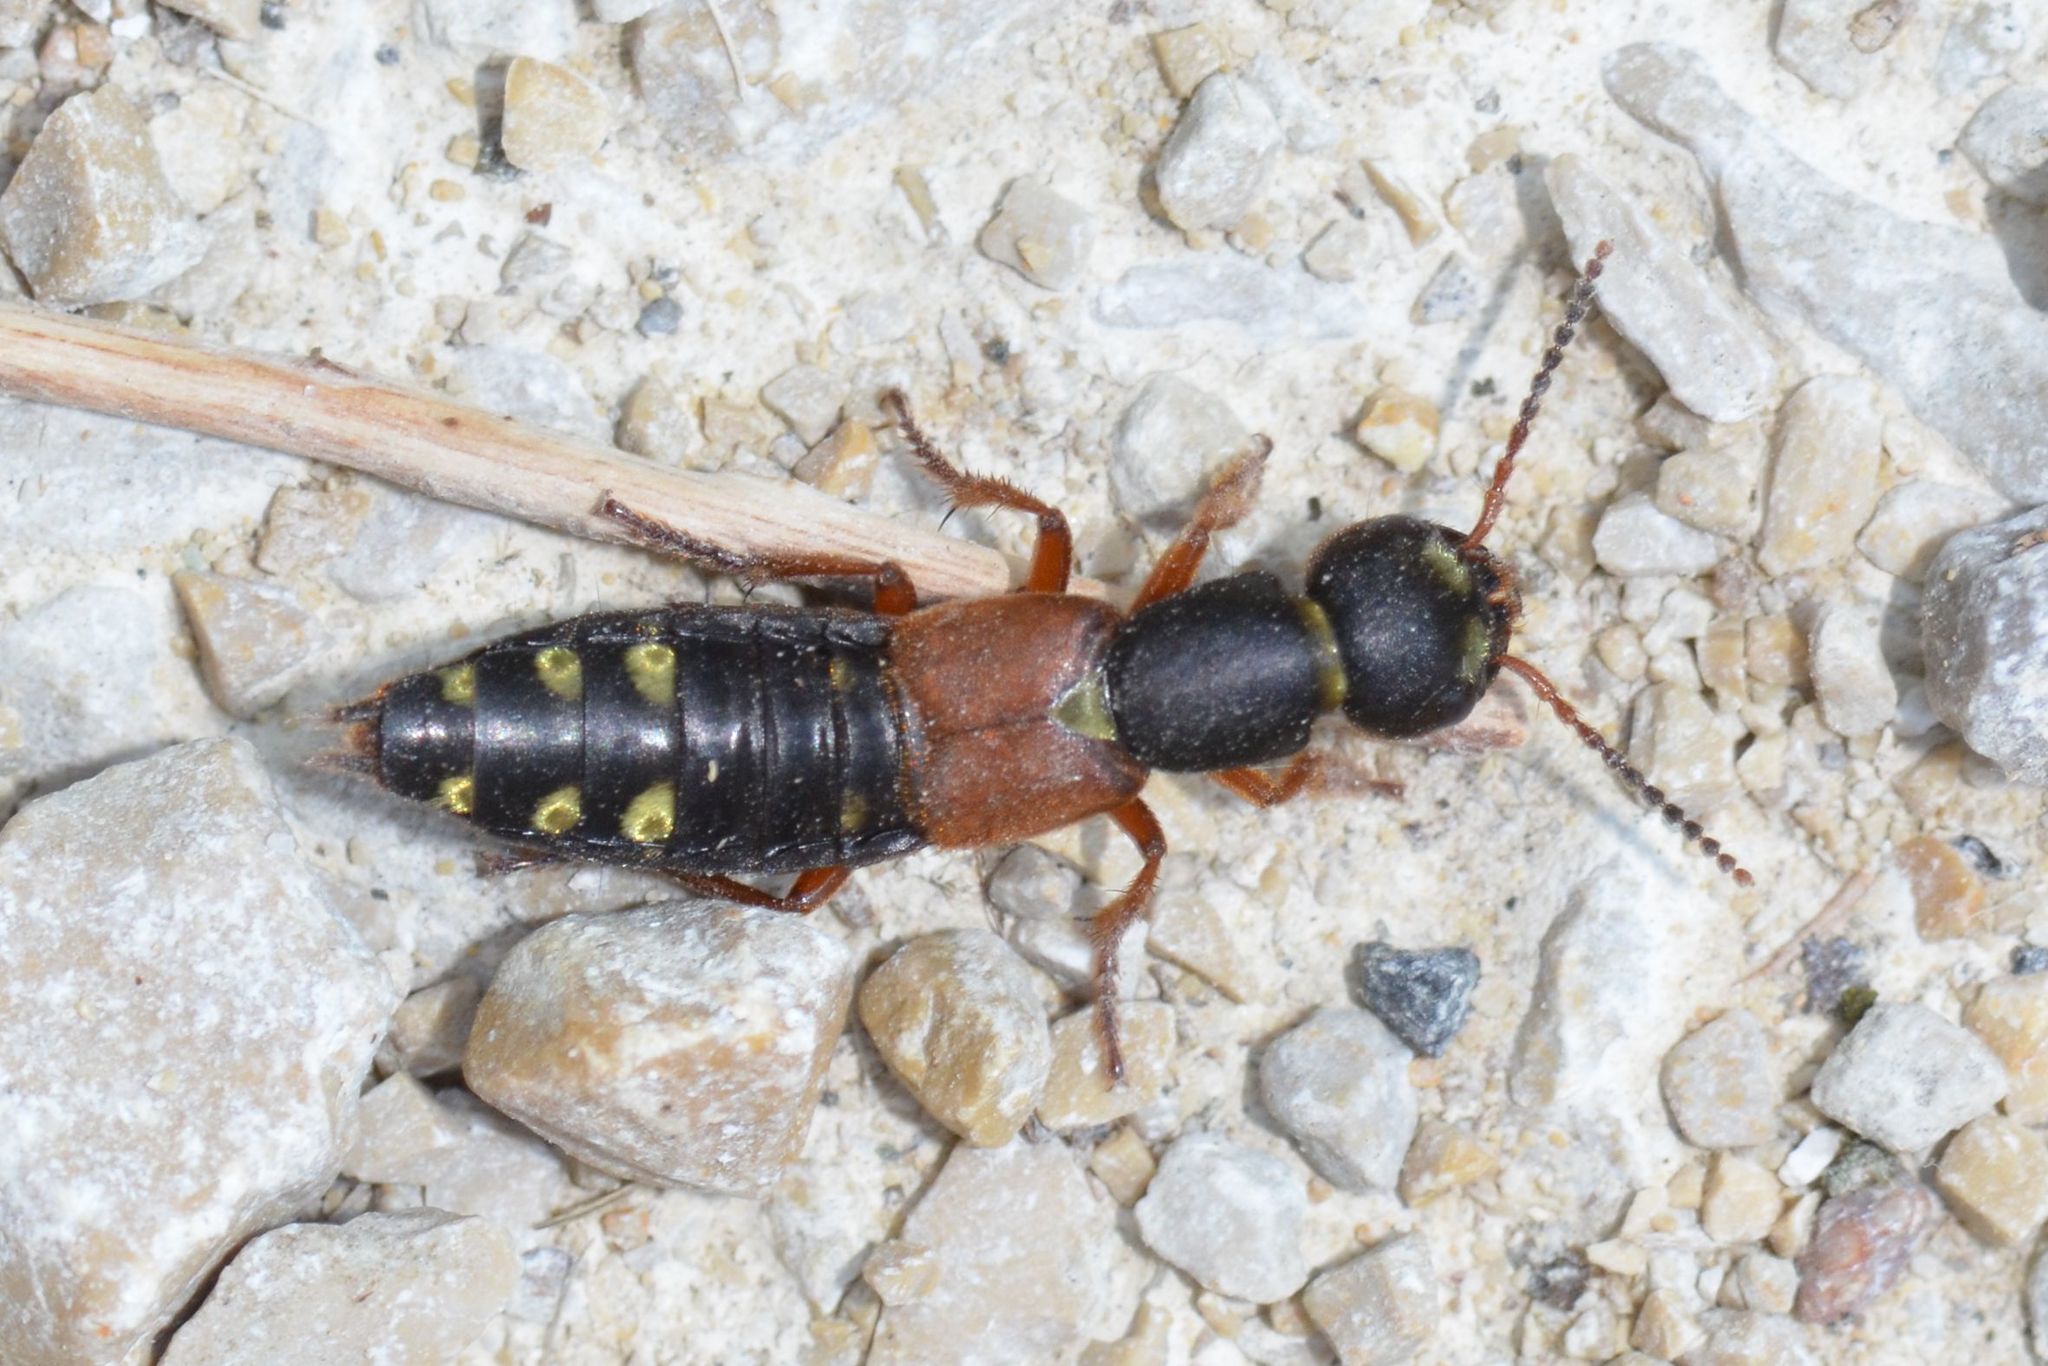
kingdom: Animalia
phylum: Arthropoda
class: Insecta
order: Coleoptera
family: Staphylinidae
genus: Staphylinus
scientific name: Staphylinus erythropterus
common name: Staph beetle
